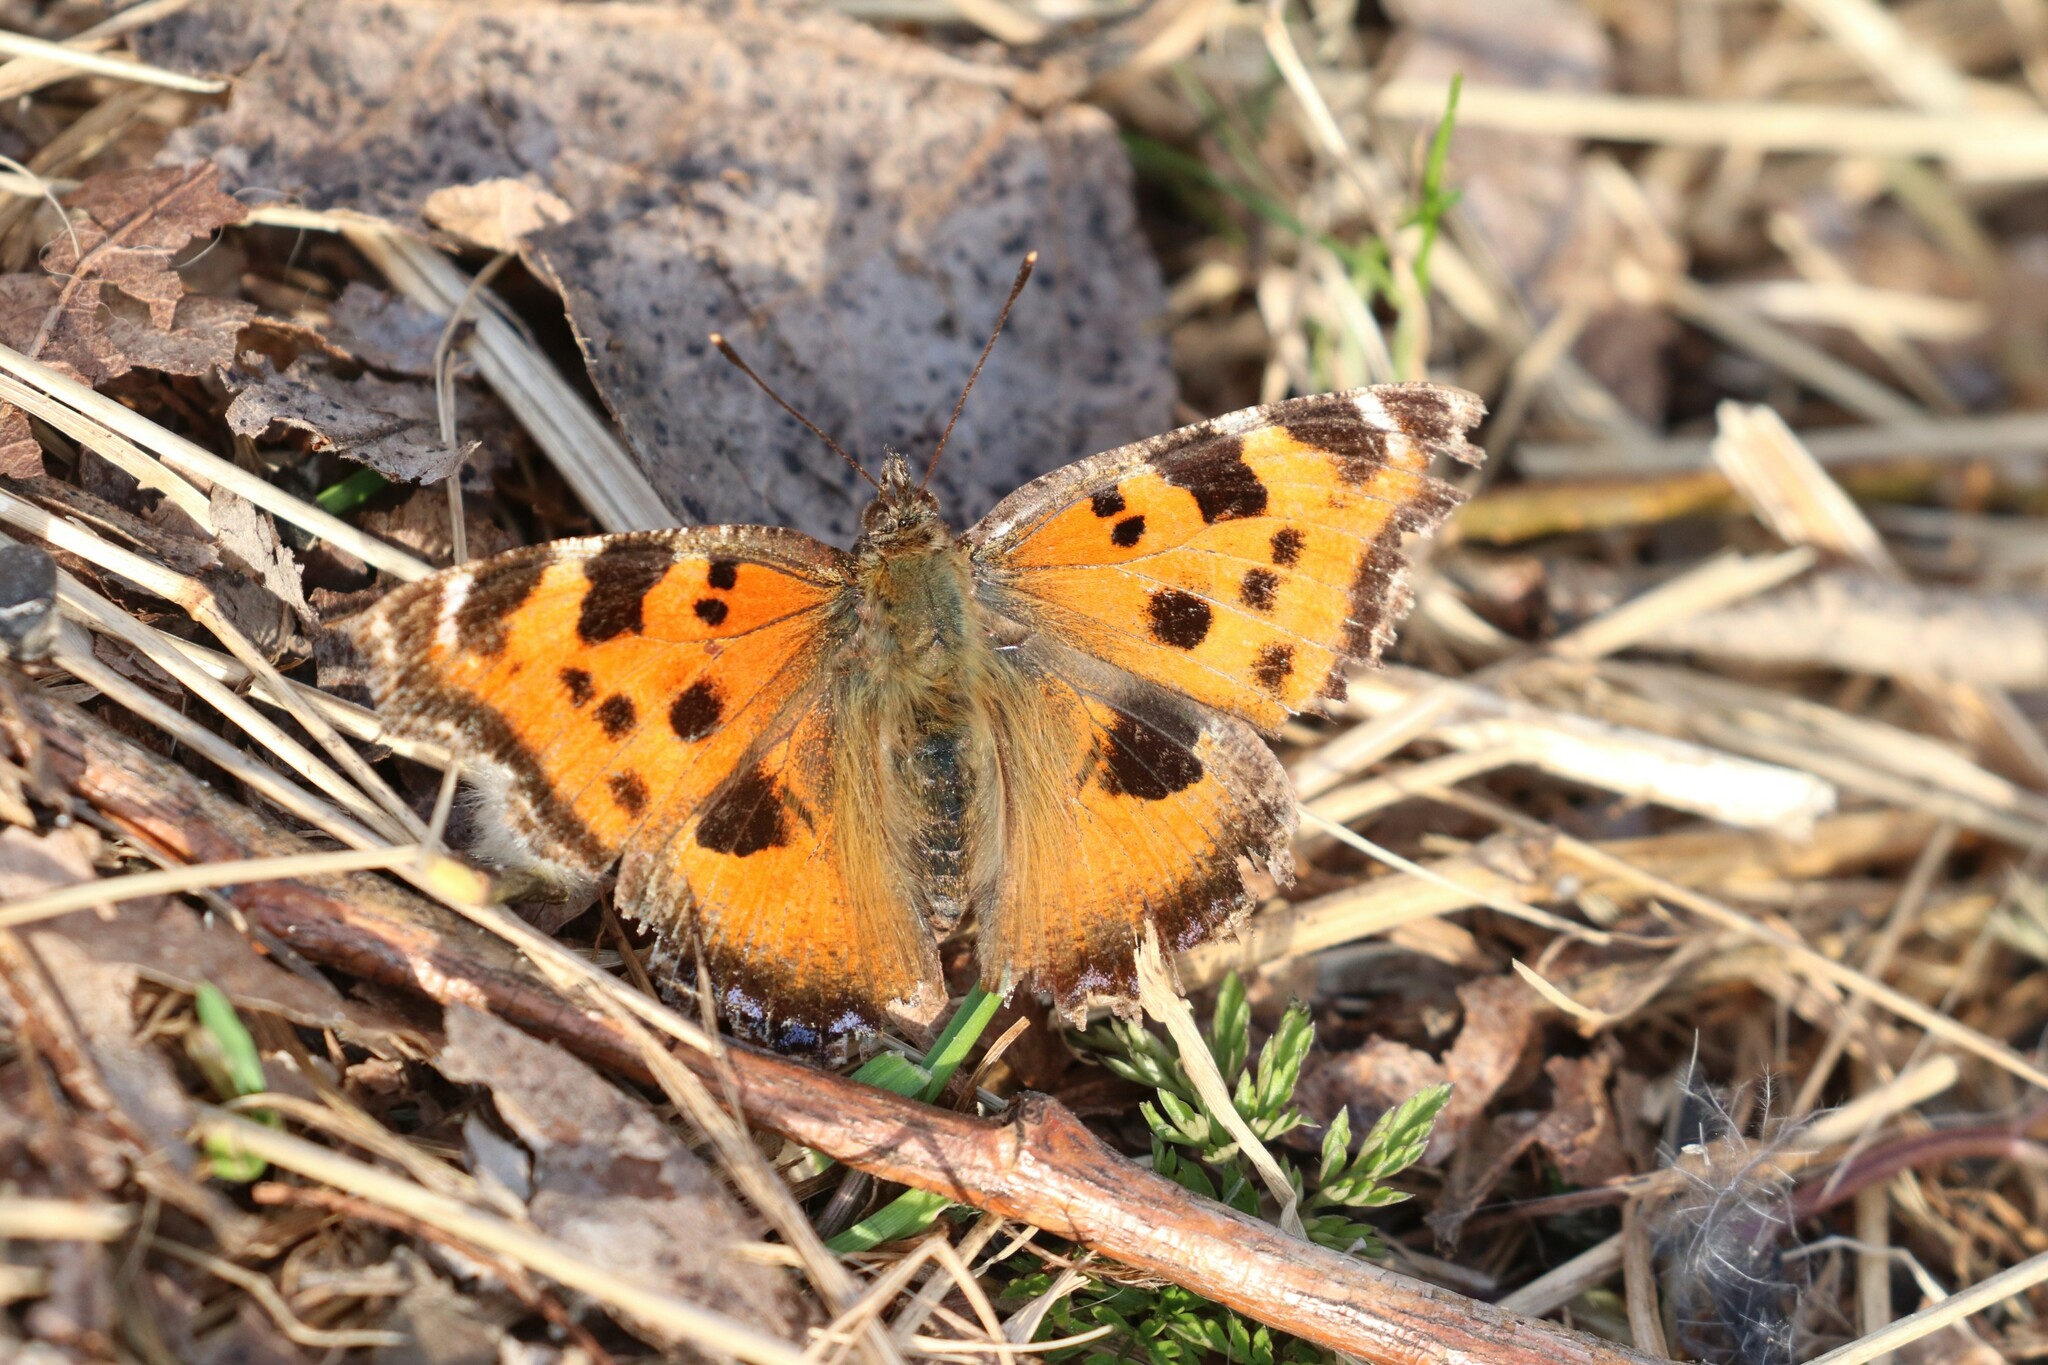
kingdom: Animalia
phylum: Arthropoda
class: Insecta
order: Lepidoptera
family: Nymphalidae
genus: Nymphalis
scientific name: Nymphalis xanthomelas
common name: Scarce tortoiseshell
